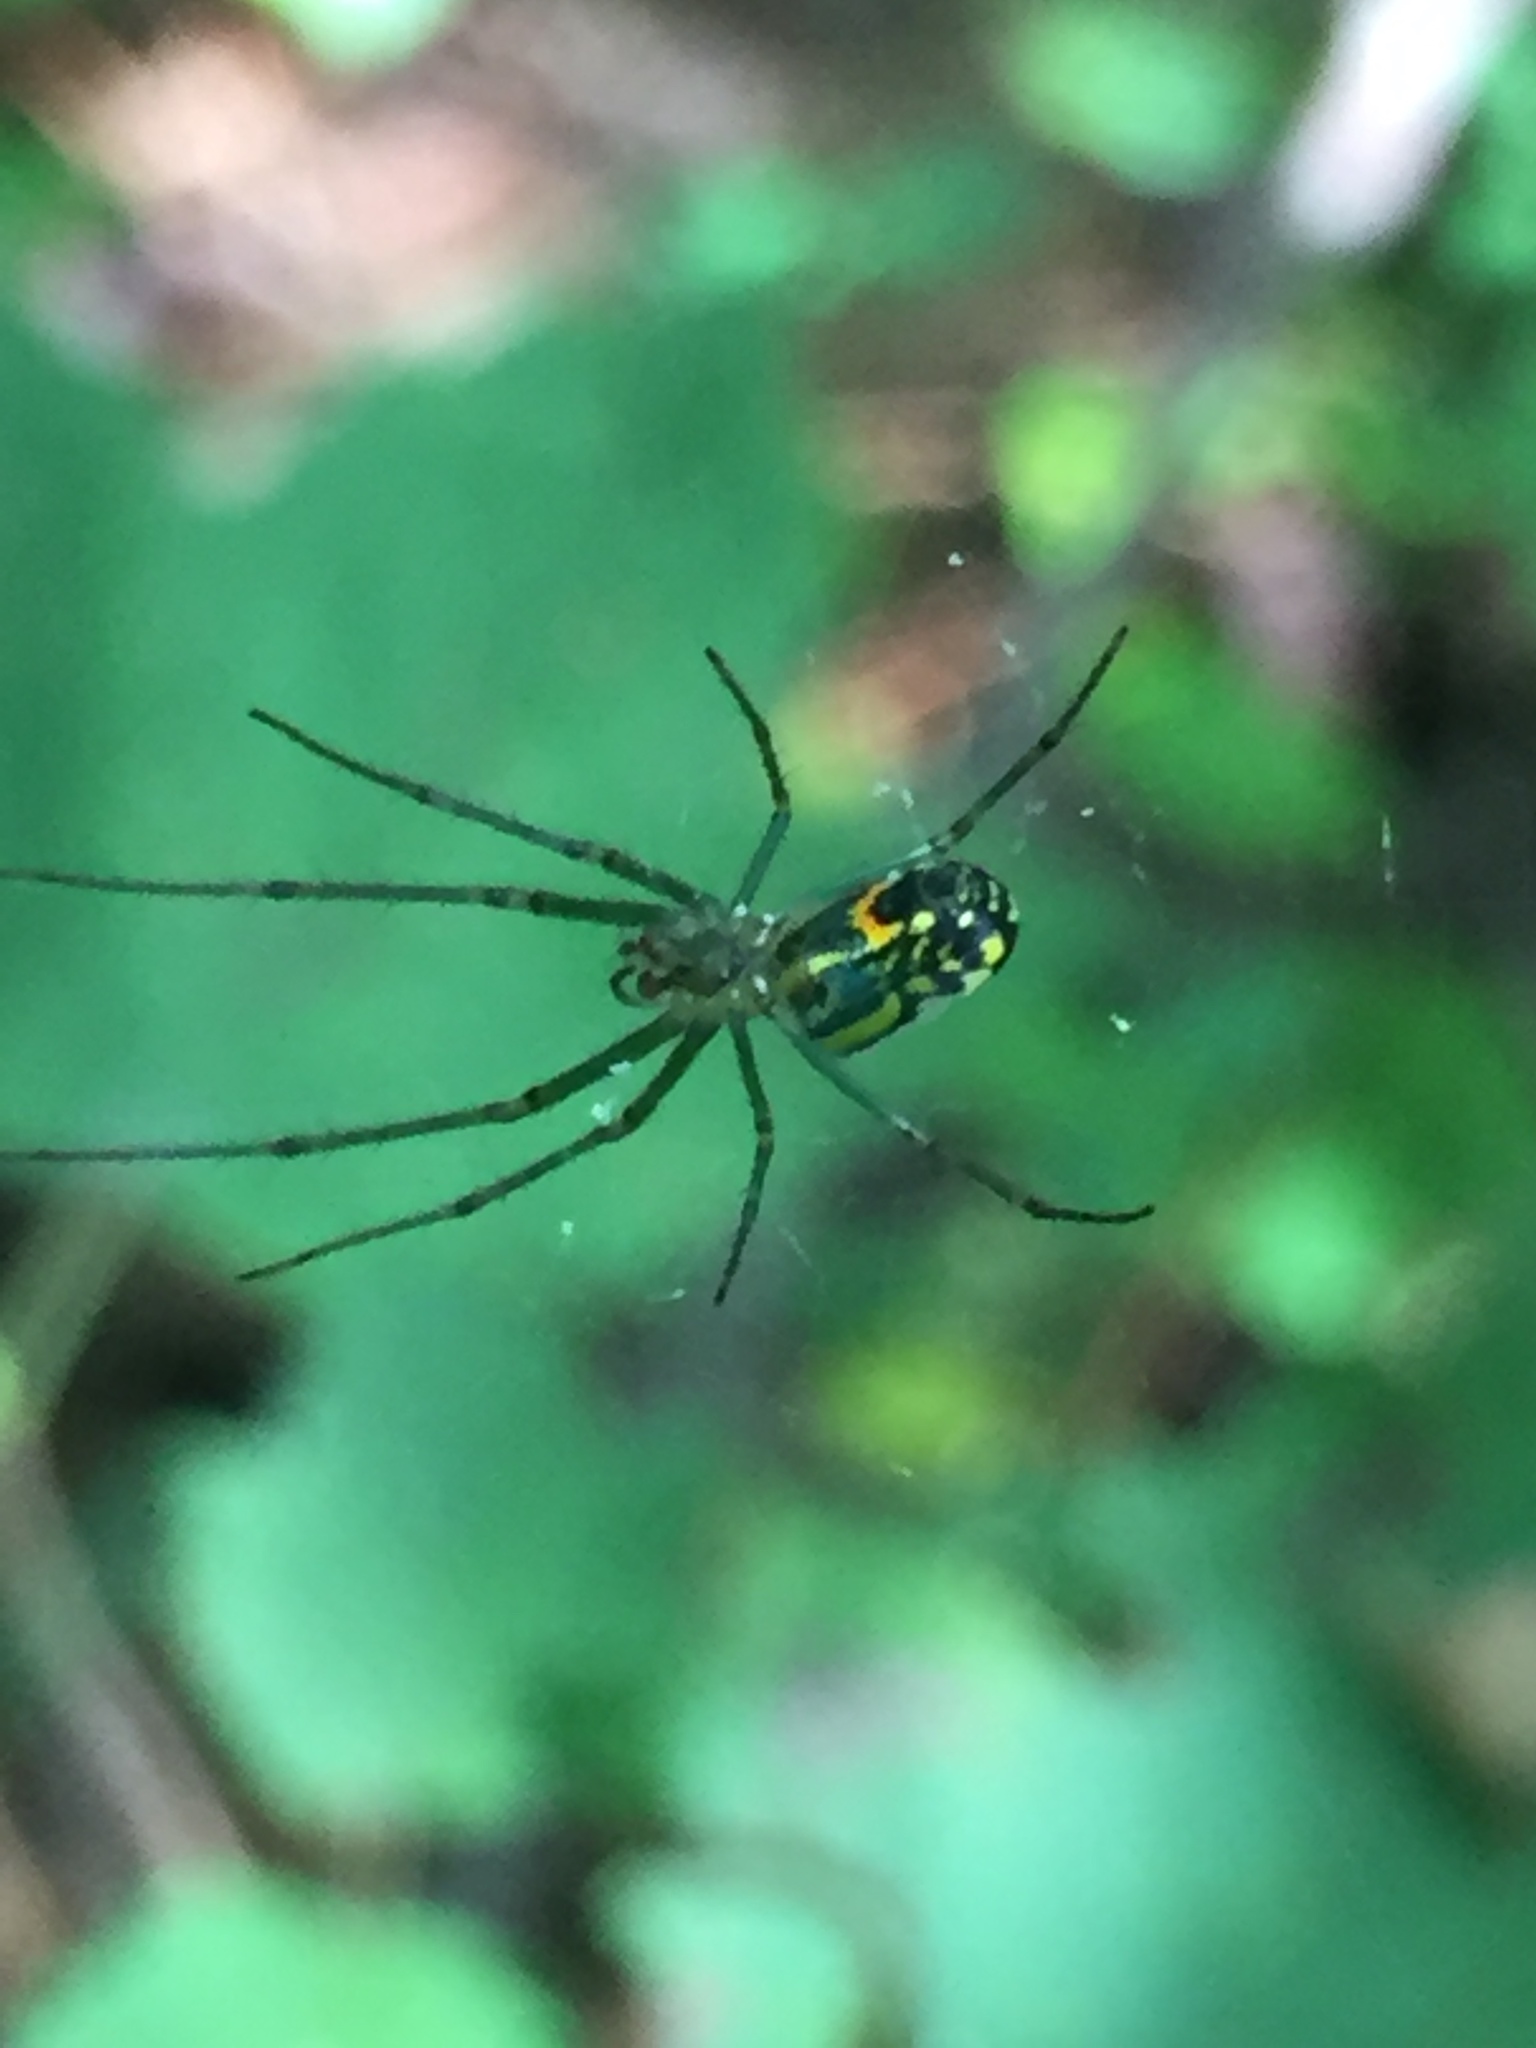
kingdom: Animalia
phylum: Arthropoda
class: Arachnida
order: Araneae
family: Tetragnathidae
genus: Leucauge
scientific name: Leucauge venusta
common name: Longjawed orb weavers
